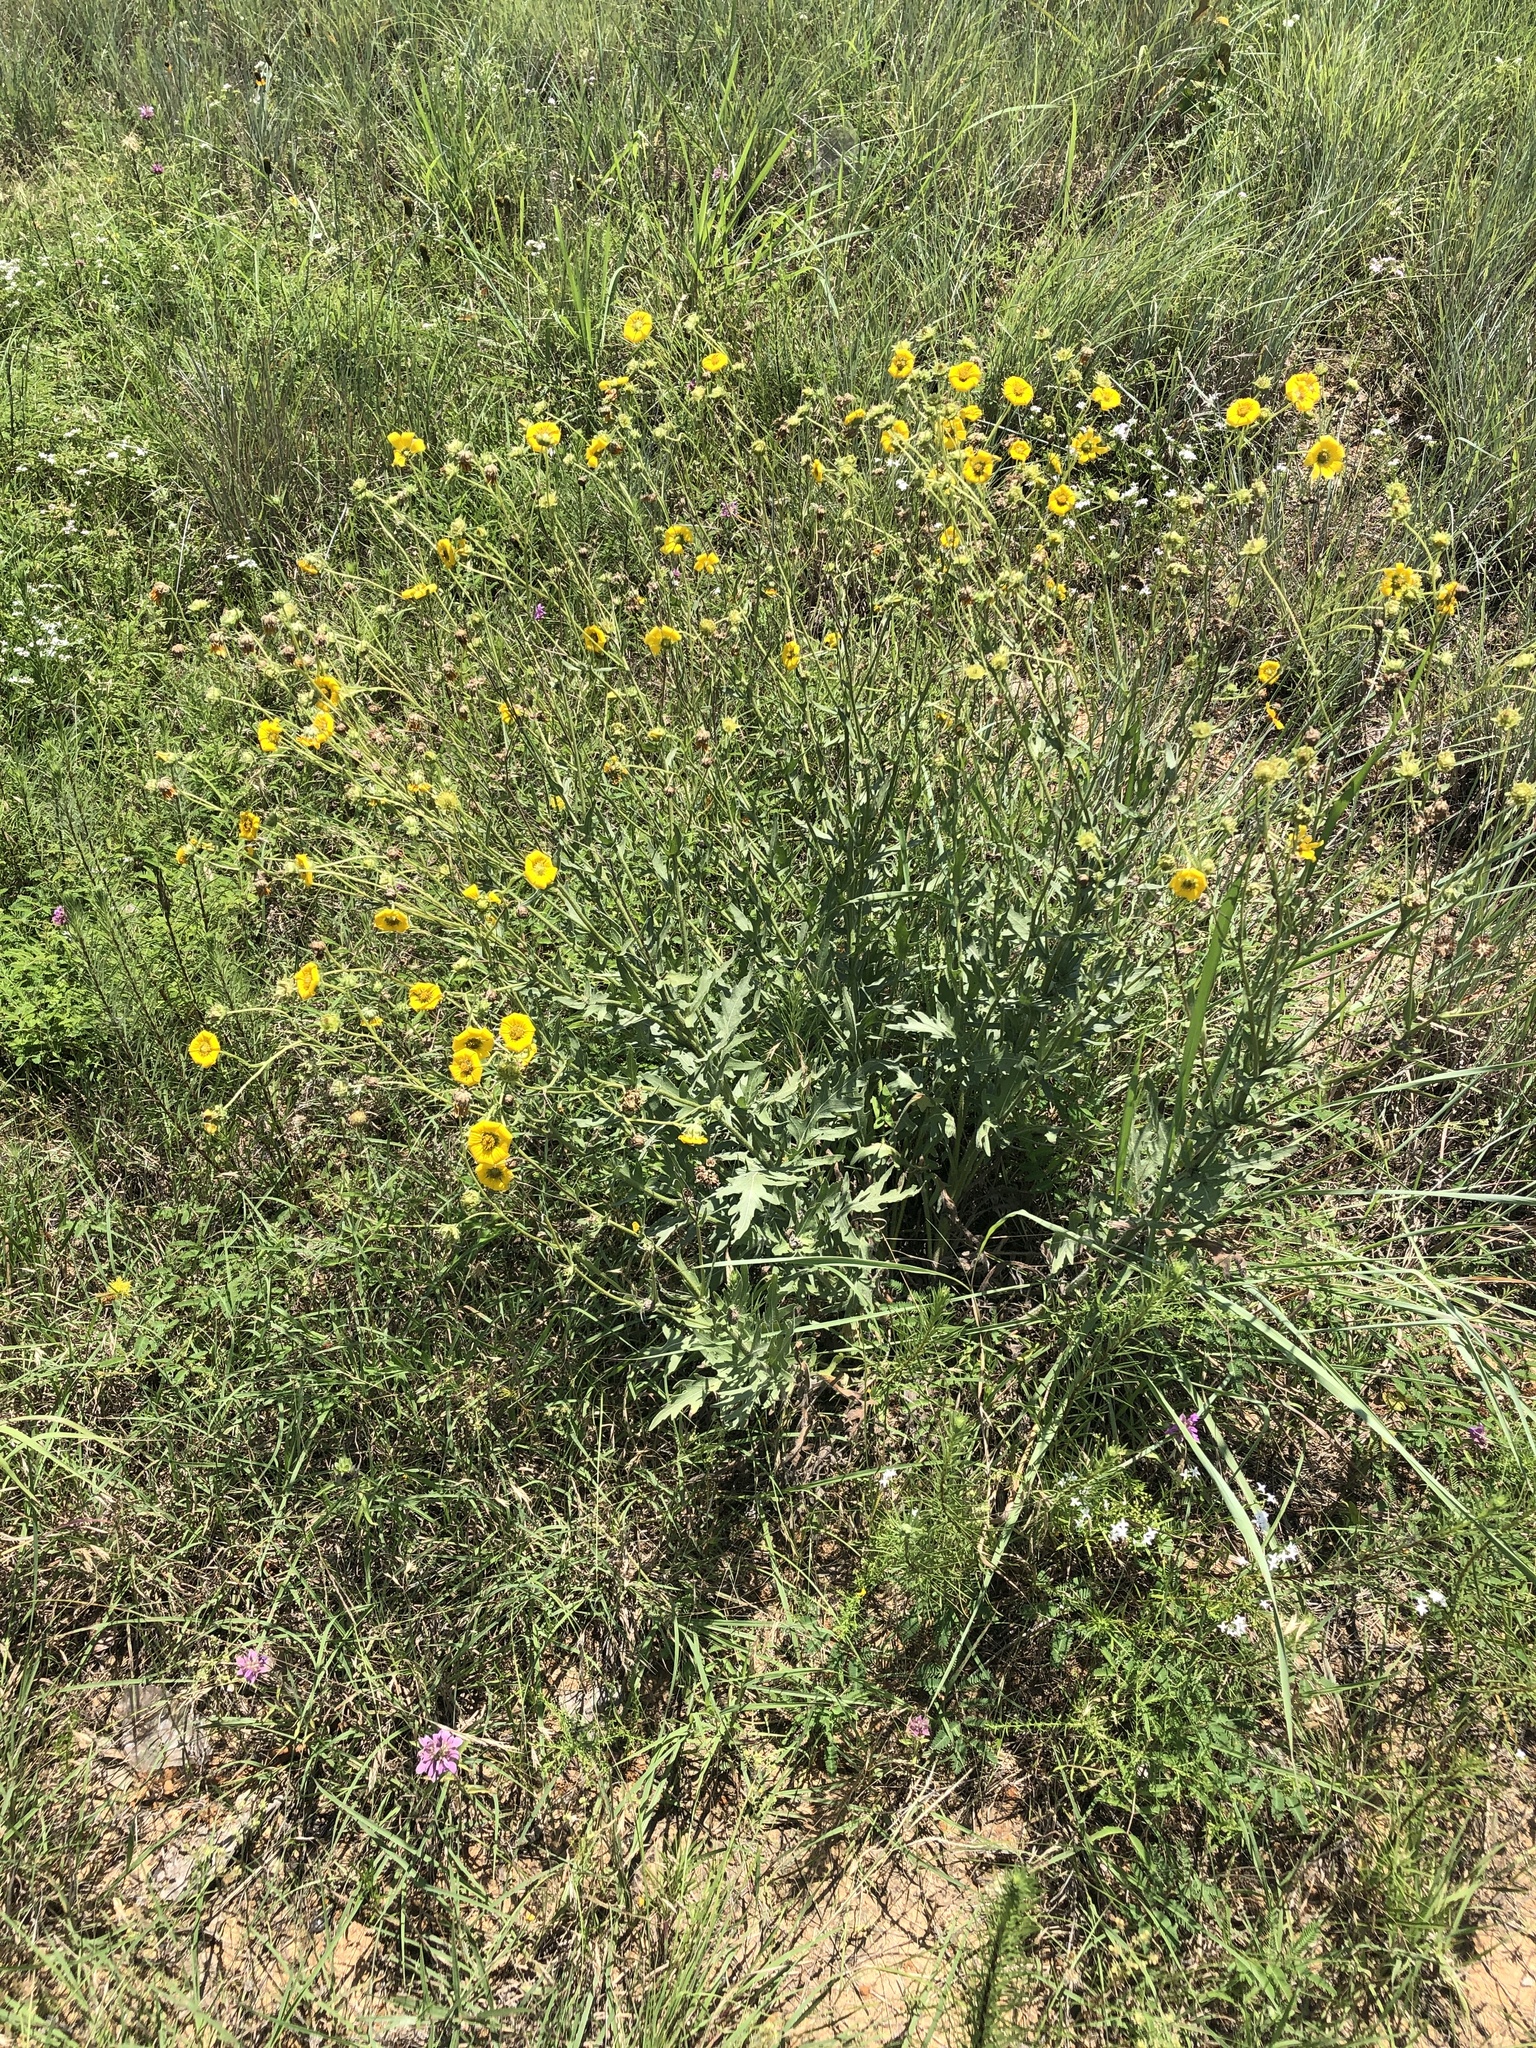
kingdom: Plantae
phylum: Tracheophyta
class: Magnoliopsida
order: Asterales
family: Asteraceae
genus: Engelmannia
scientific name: Engelmannia peristenia
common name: Engelmann's daisy
